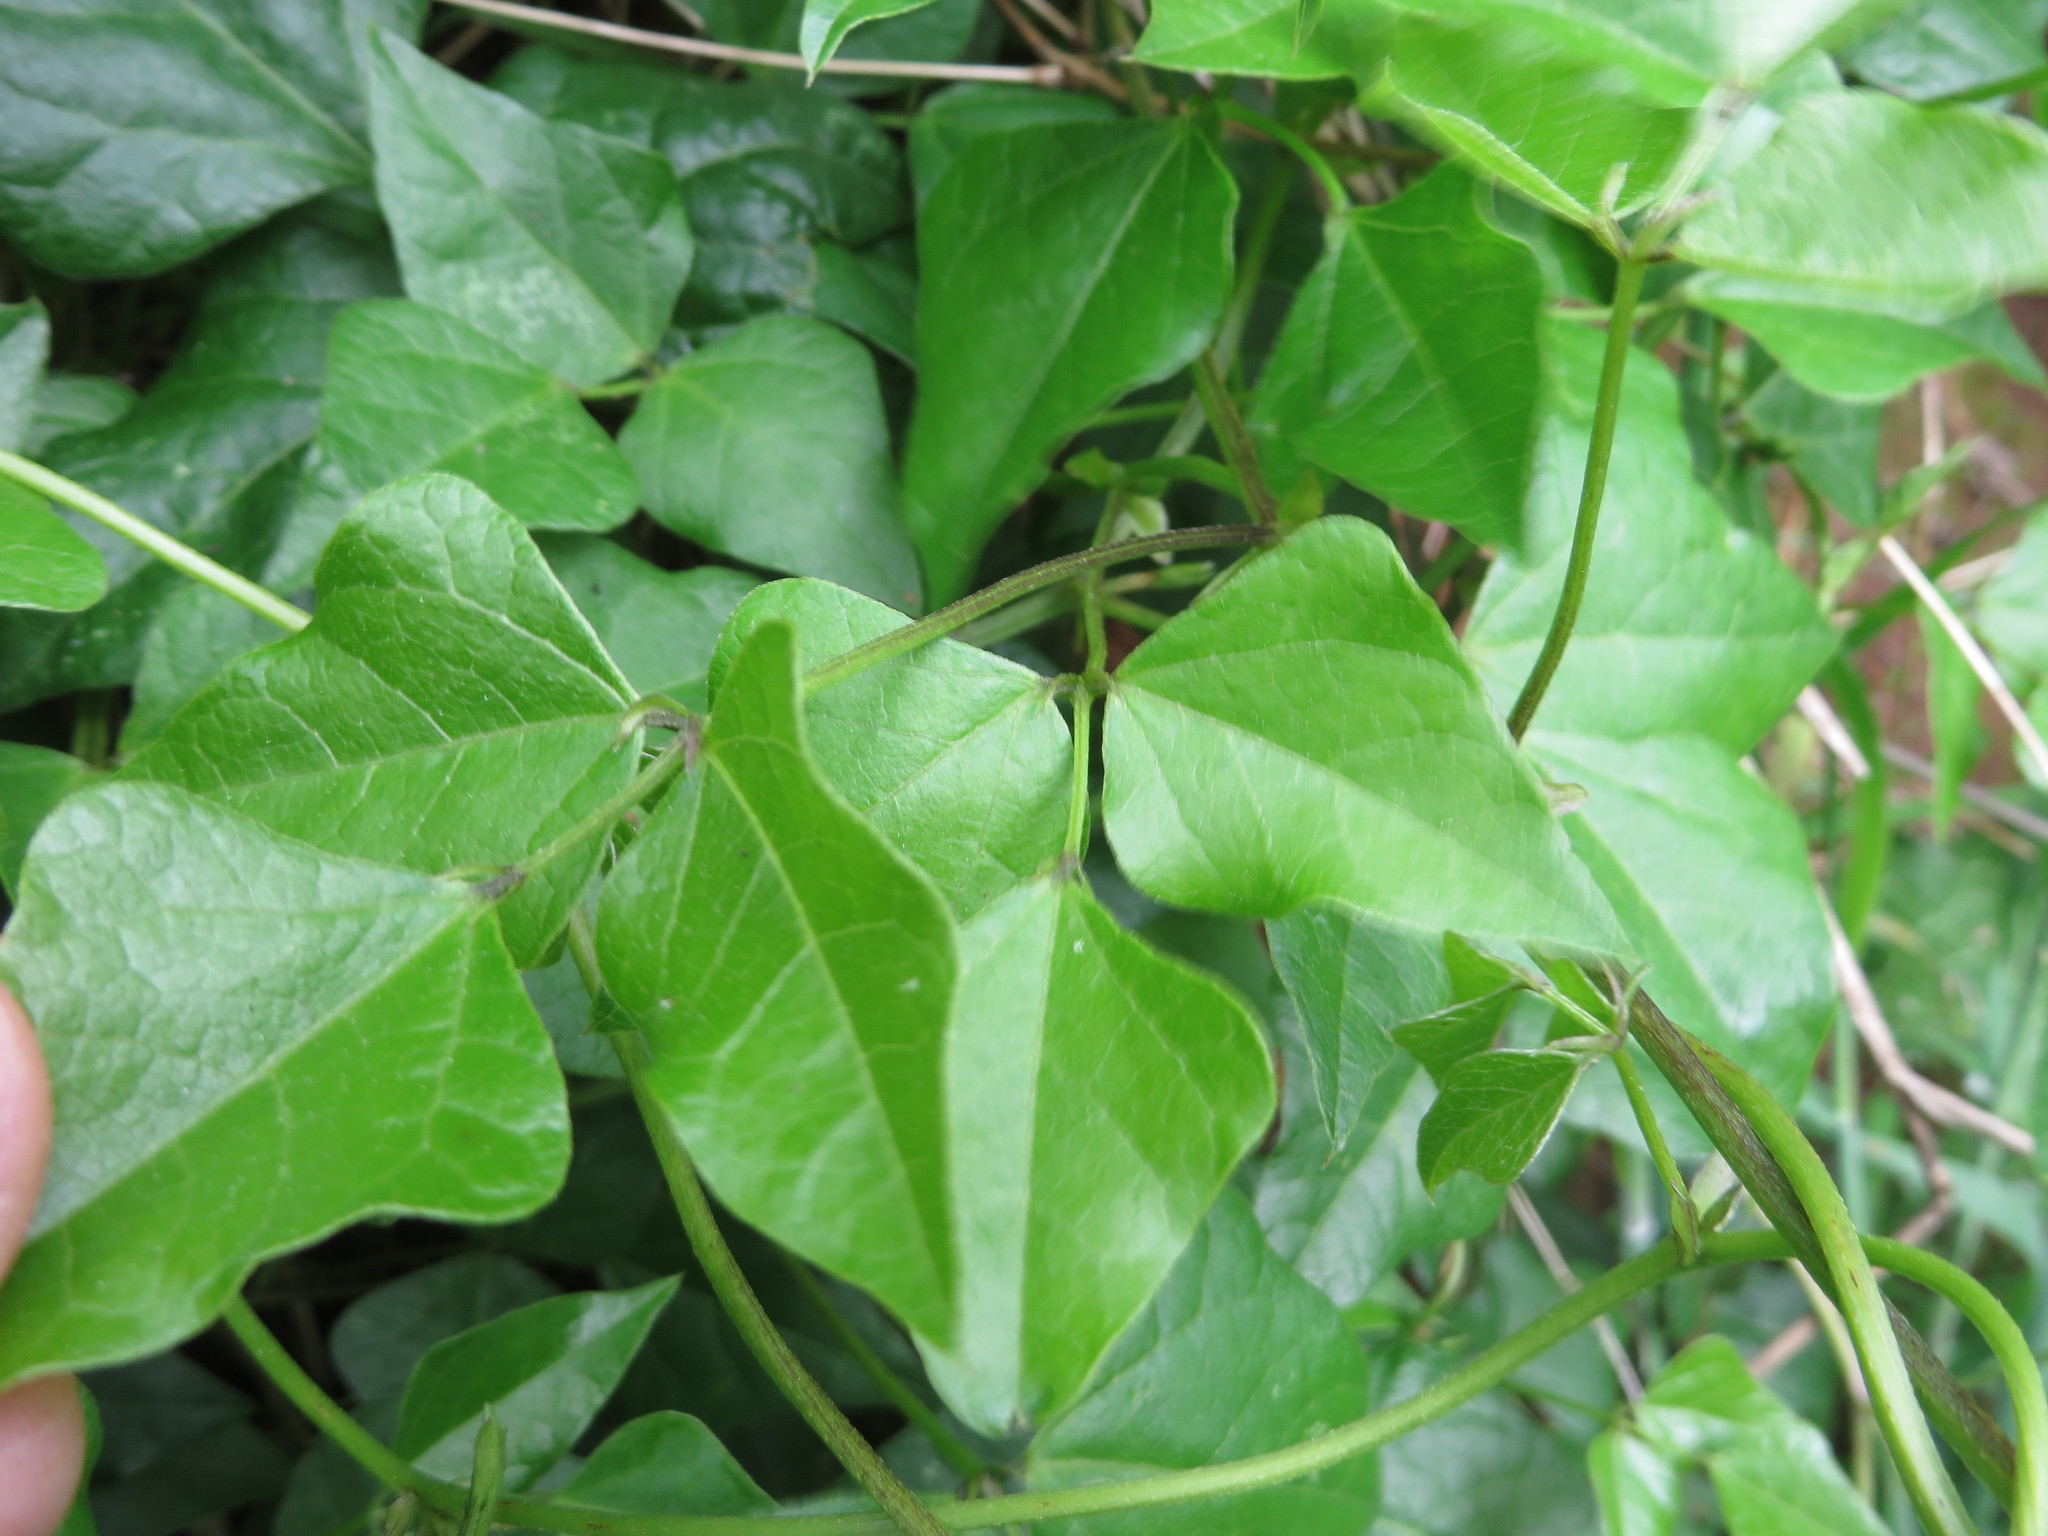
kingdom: Plantae
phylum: Tracheophyta
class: Magnoliopsida
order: Fabales
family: Fabaceae
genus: Dipogon
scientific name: Dipogon lignosus
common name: Okie bean
